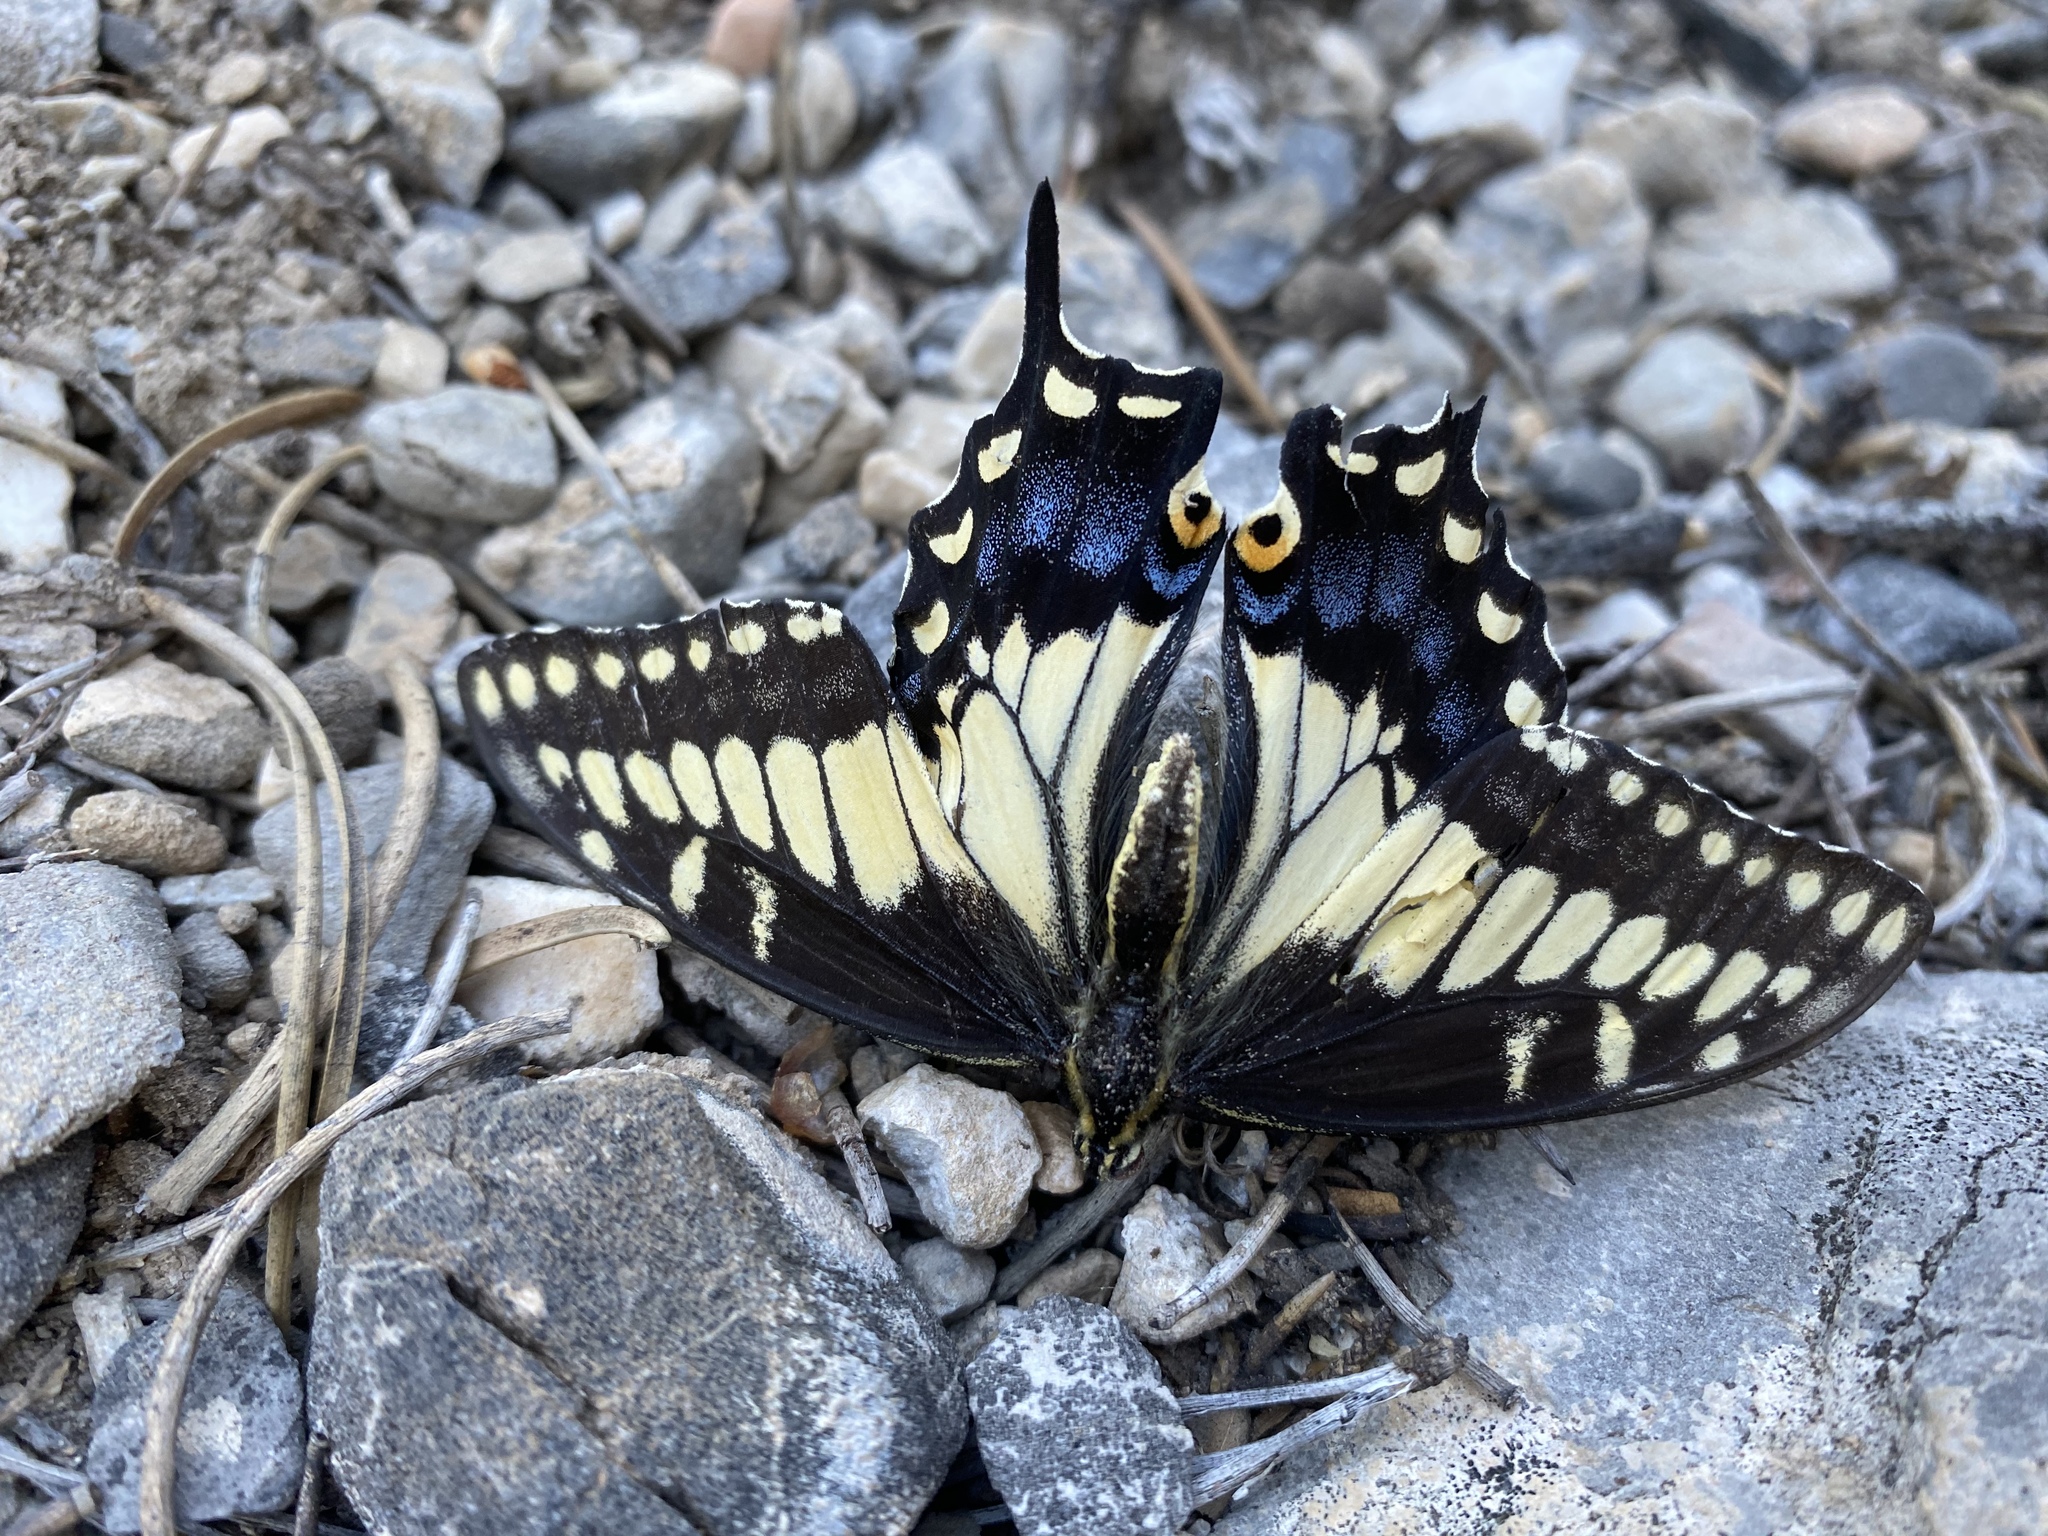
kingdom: Animalia
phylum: Arthropoda
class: Insecta
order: Lepidoptera
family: Papilionidae
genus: Papilio
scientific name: Papilio polyxenes
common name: Black swallowtail
